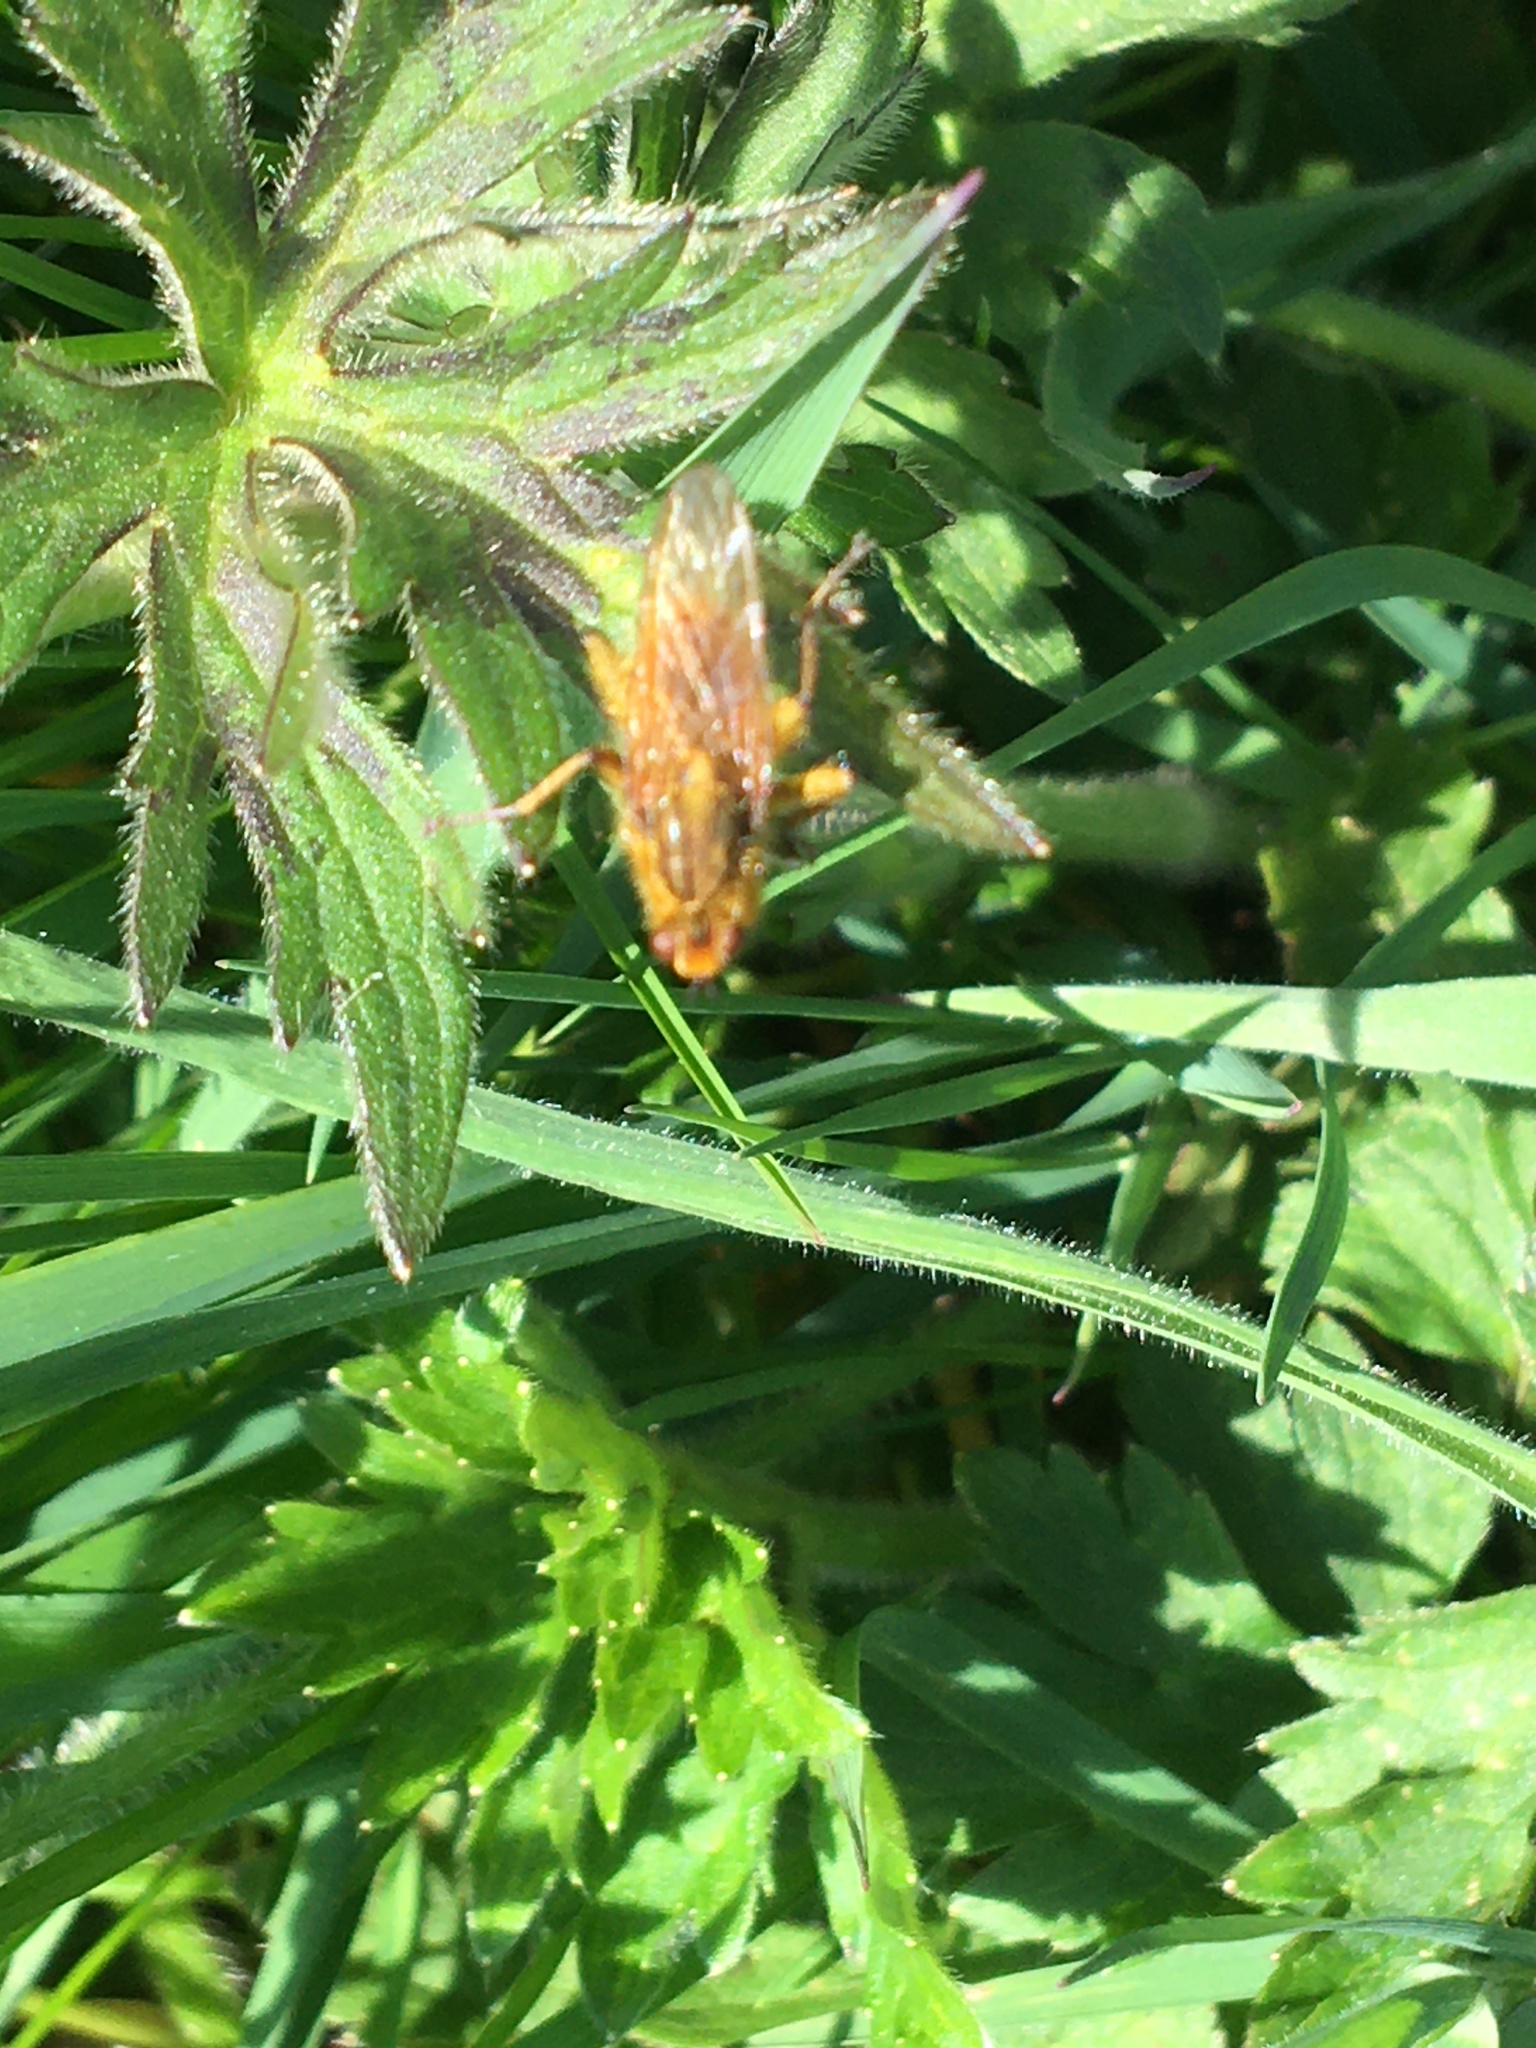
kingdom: Animalia
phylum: Arthropoda
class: Insecta
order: Diptera
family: Scathophagidae
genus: Scathophaga
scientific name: Scathophaga stercoraria
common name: Yellow dung fly
